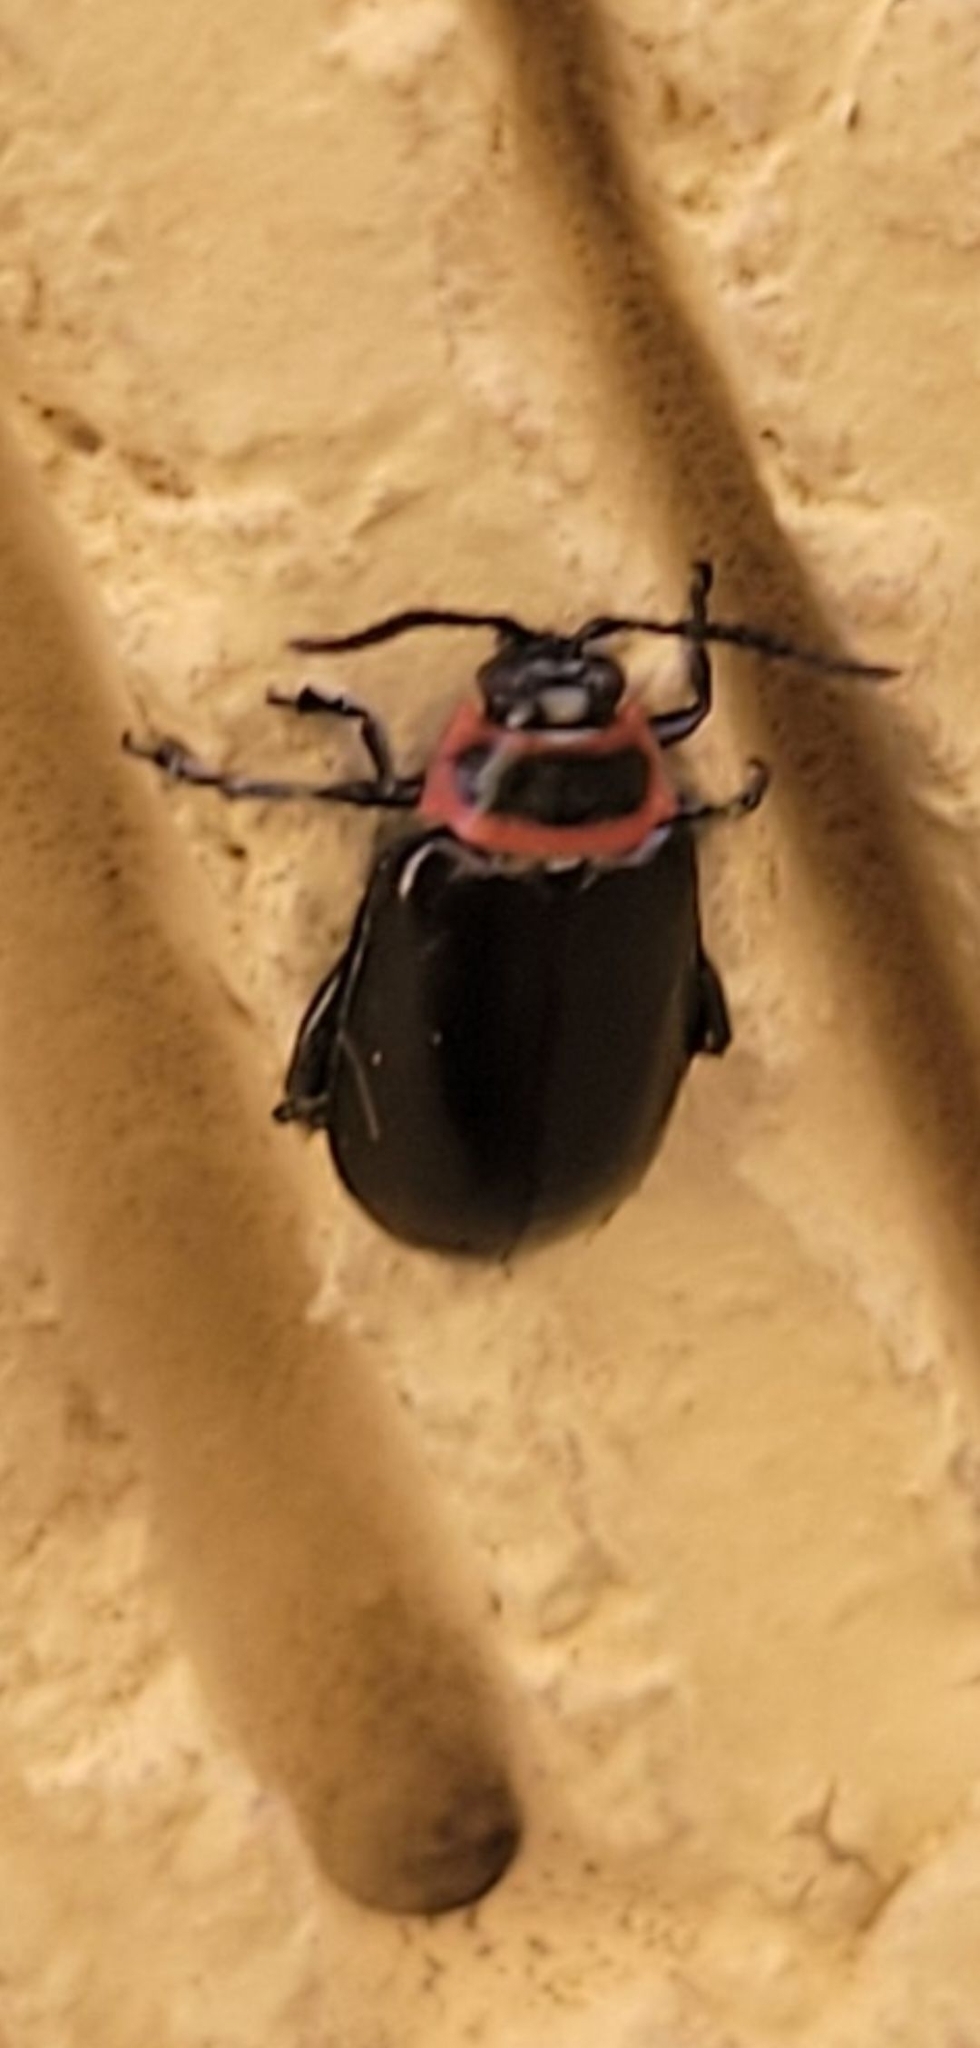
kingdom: Animalia
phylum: Arthropoda
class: Insecta
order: Coleoptera
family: Chrysomelidae
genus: Kuschelina
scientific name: Kuschelina vians
